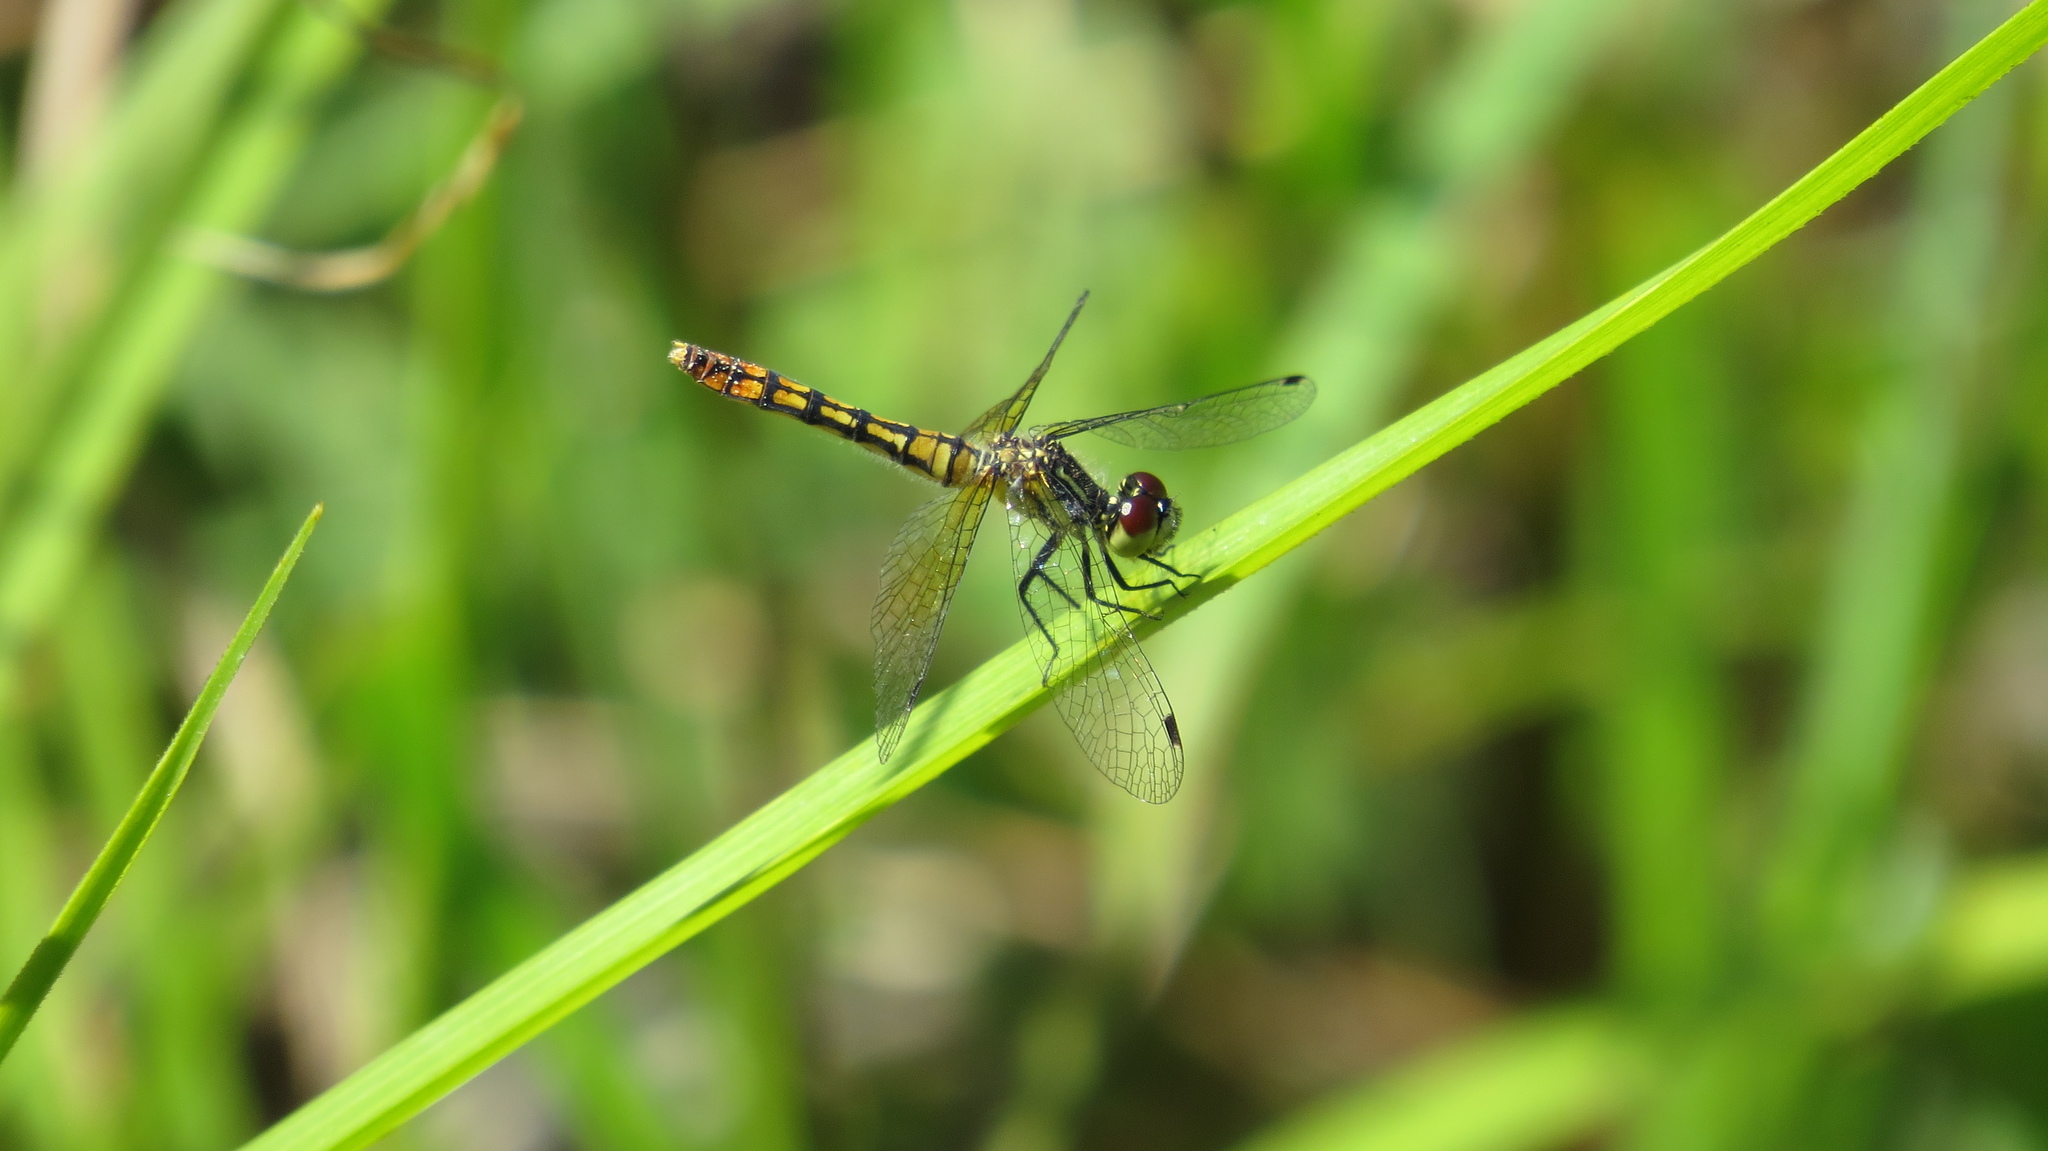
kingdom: Animalia
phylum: Arthropoda
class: Insecta
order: Odonata
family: Libellulidae
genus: Nannophya
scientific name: Nannophya australis
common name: Australian pygmyfly
